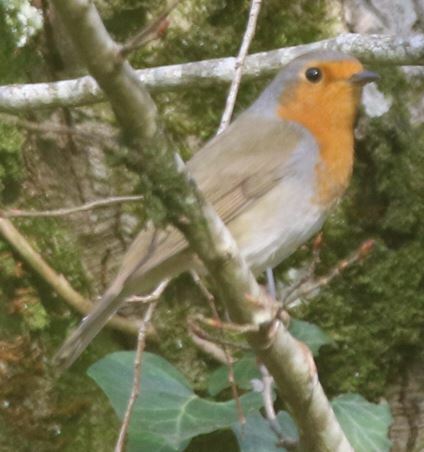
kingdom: Animalia
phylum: Chordata
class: Aves
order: Passeriformes
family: Muscicapidae
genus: Erithacus
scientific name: Erithacus rubecula
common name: European robin
